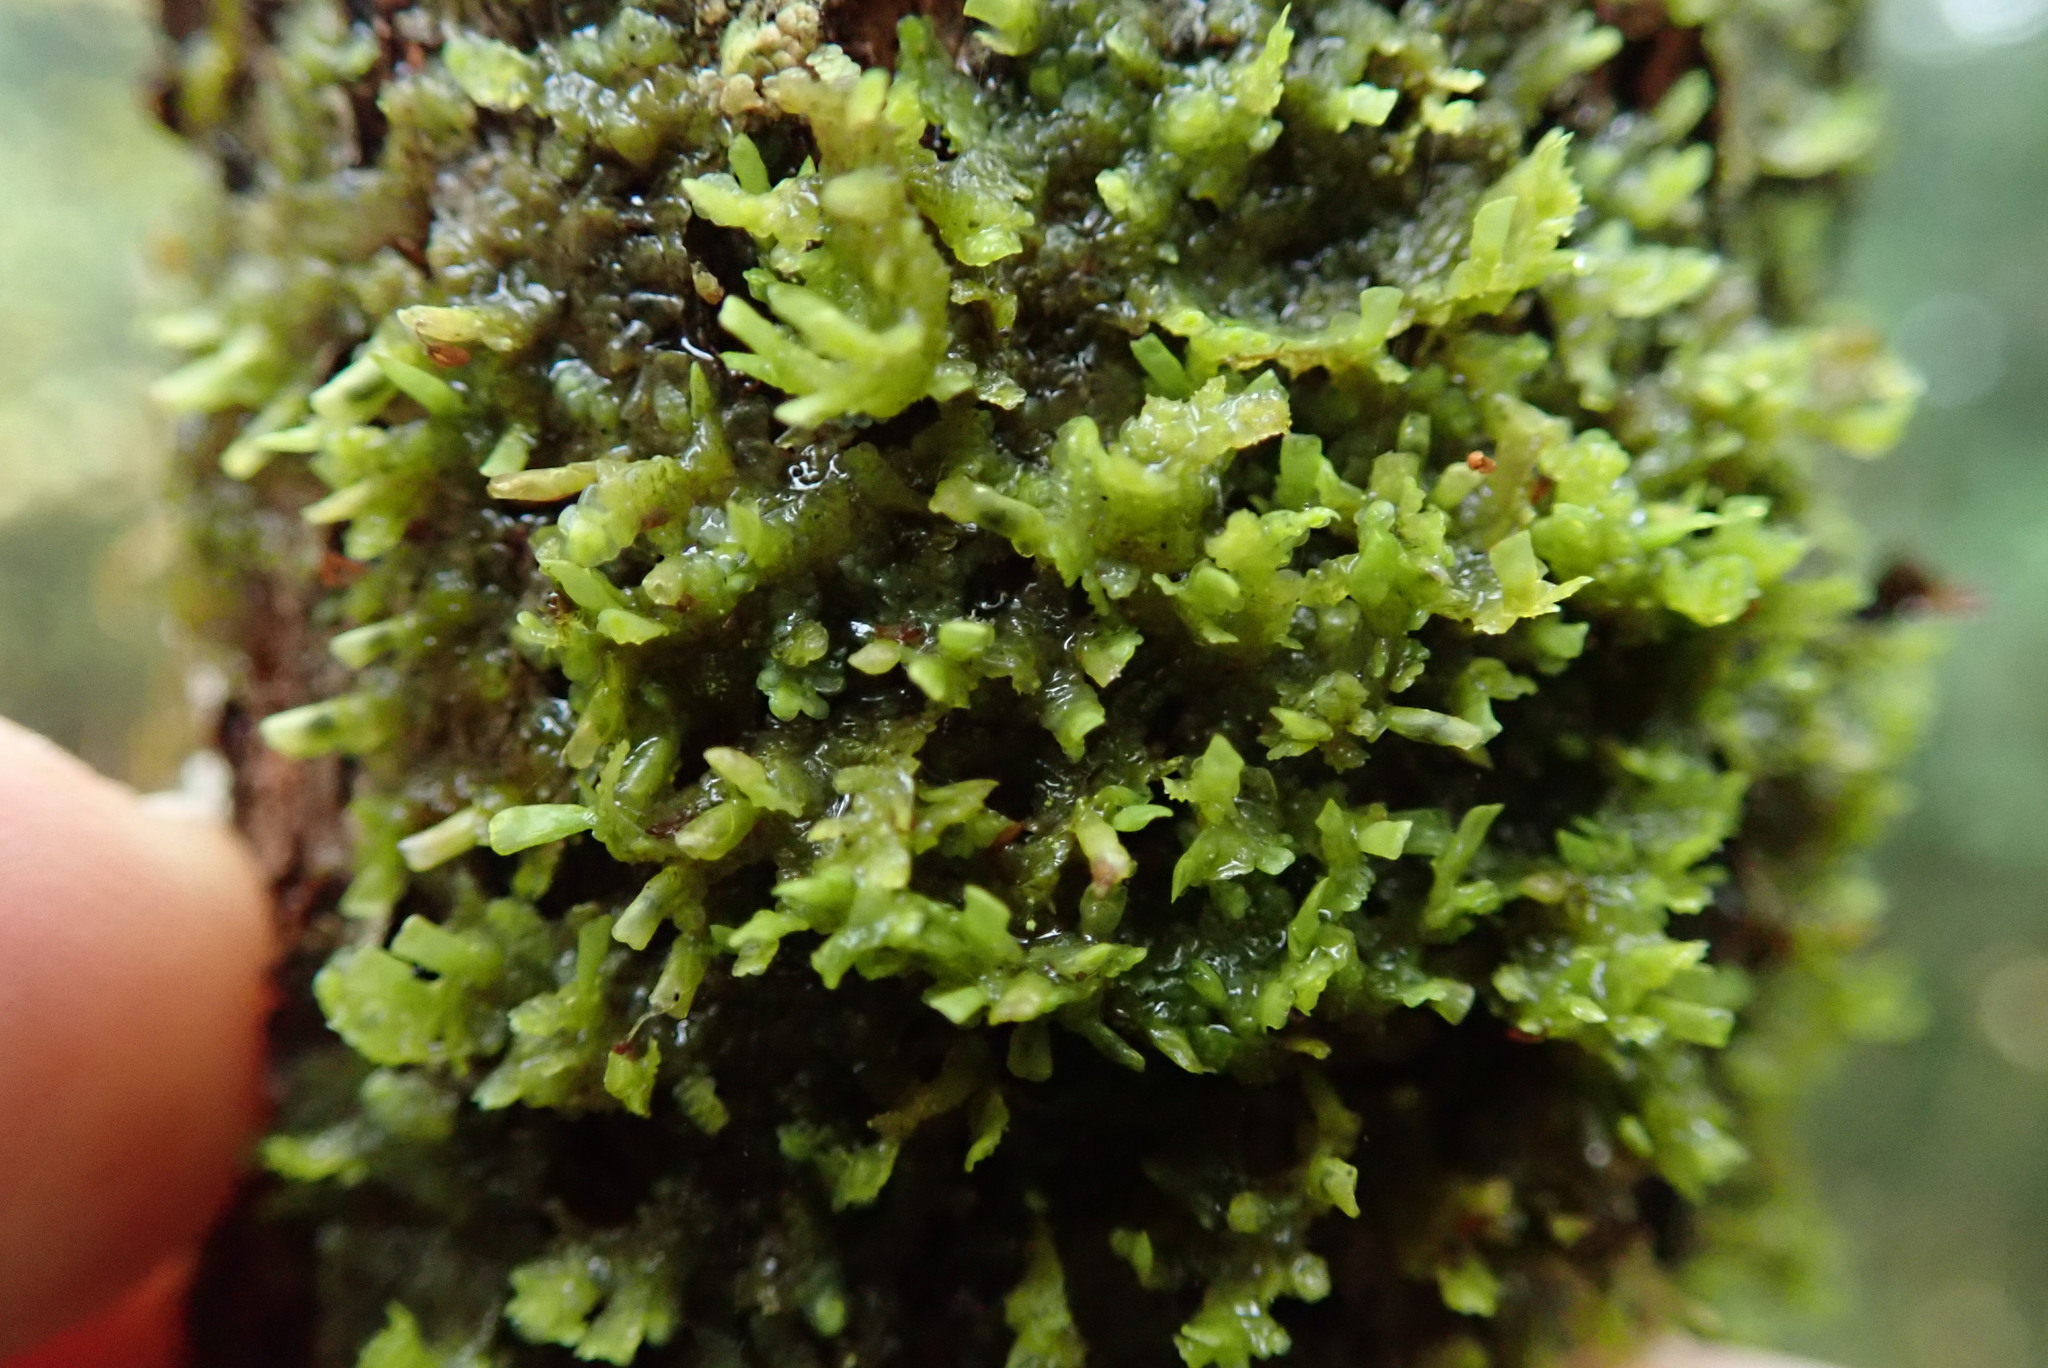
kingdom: Plantae
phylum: Marchantiophyta
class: Jungermanniopsida
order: Porellales
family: Radulaceae
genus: Radula
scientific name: Radula complanata
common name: Flat-leaved scalewort
